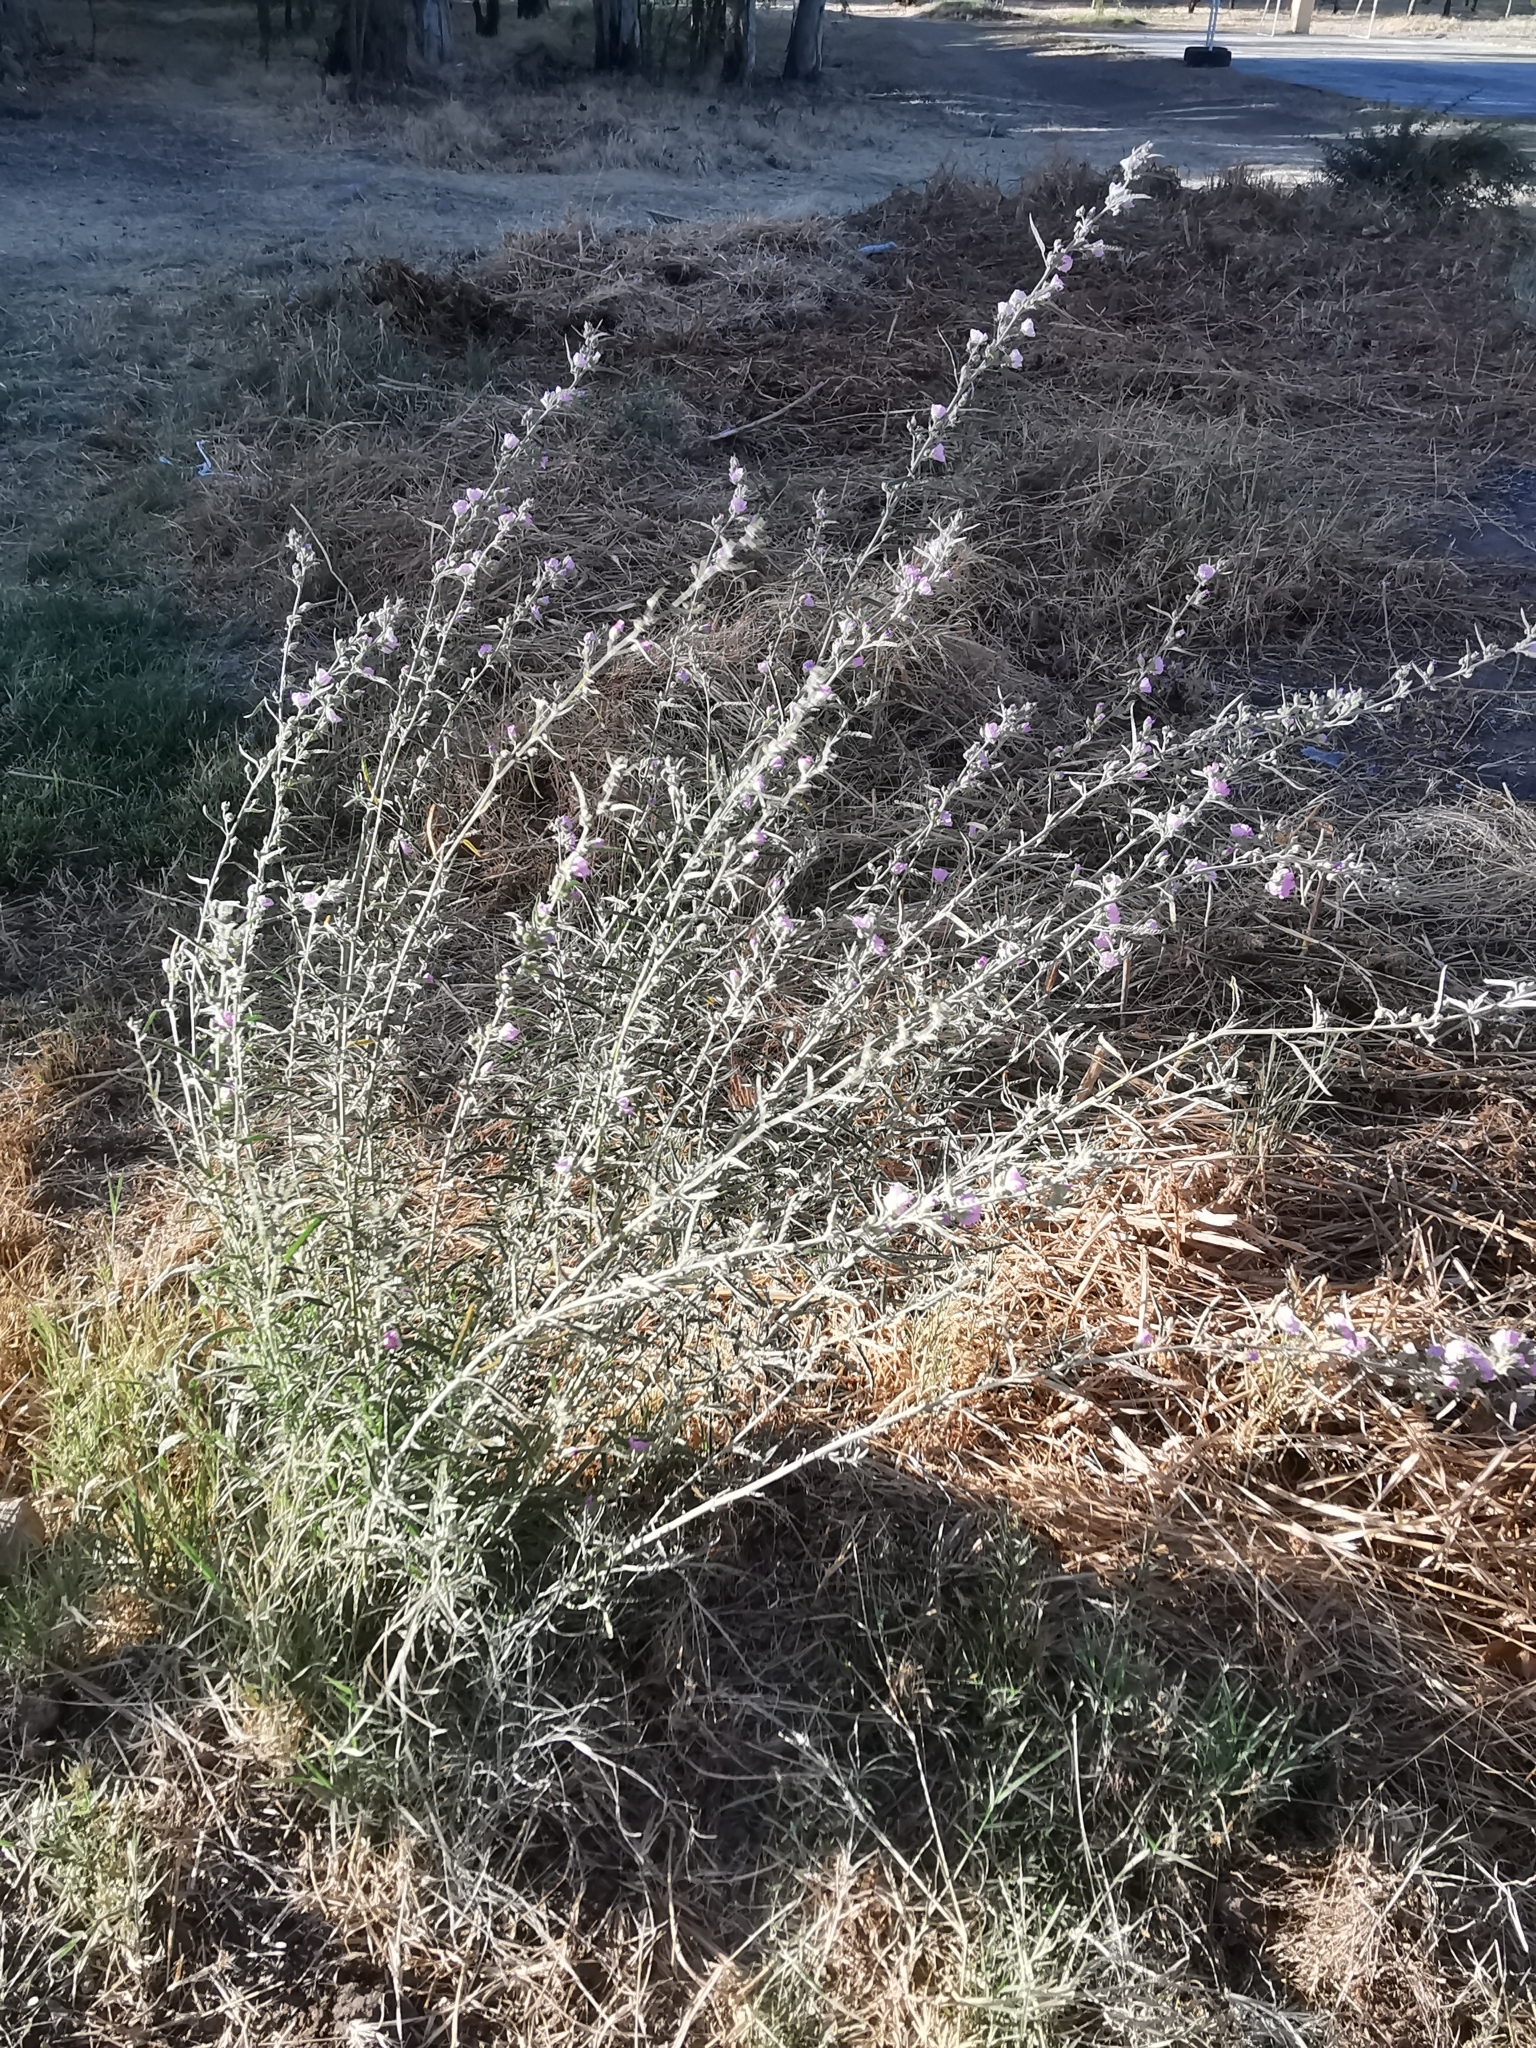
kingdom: Plantae
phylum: Tracheophyta
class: Magnoliopsida
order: Malvales
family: Malvaceae
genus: Sphaeralcea
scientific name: Sphaeralcea angustifolia
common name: Copper globe-mallow
